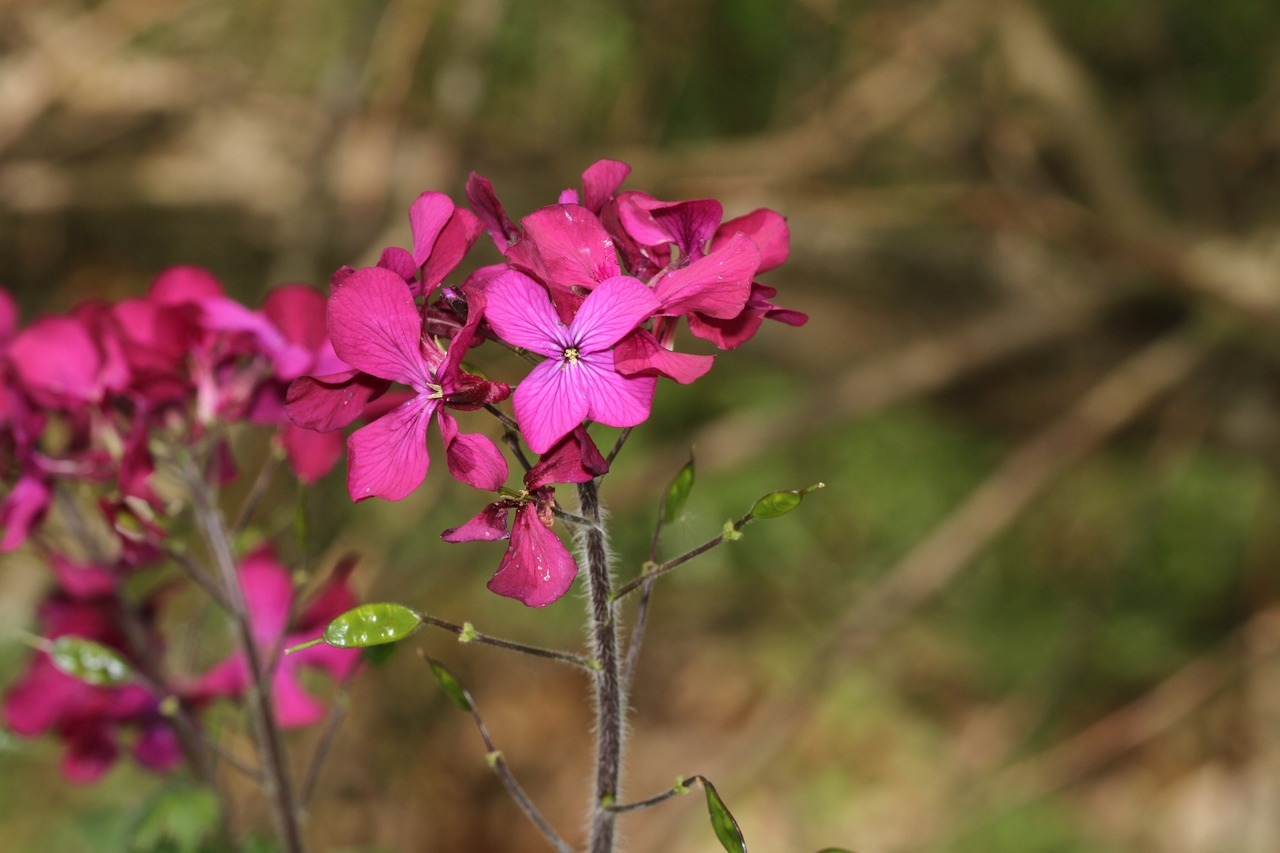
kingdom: Plantae
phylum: Tracheophyta
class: Magnoliopsida
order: Brassicales
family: Brassicaceae
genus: Lunaria
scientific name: Lunaria annua
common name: Honesty
